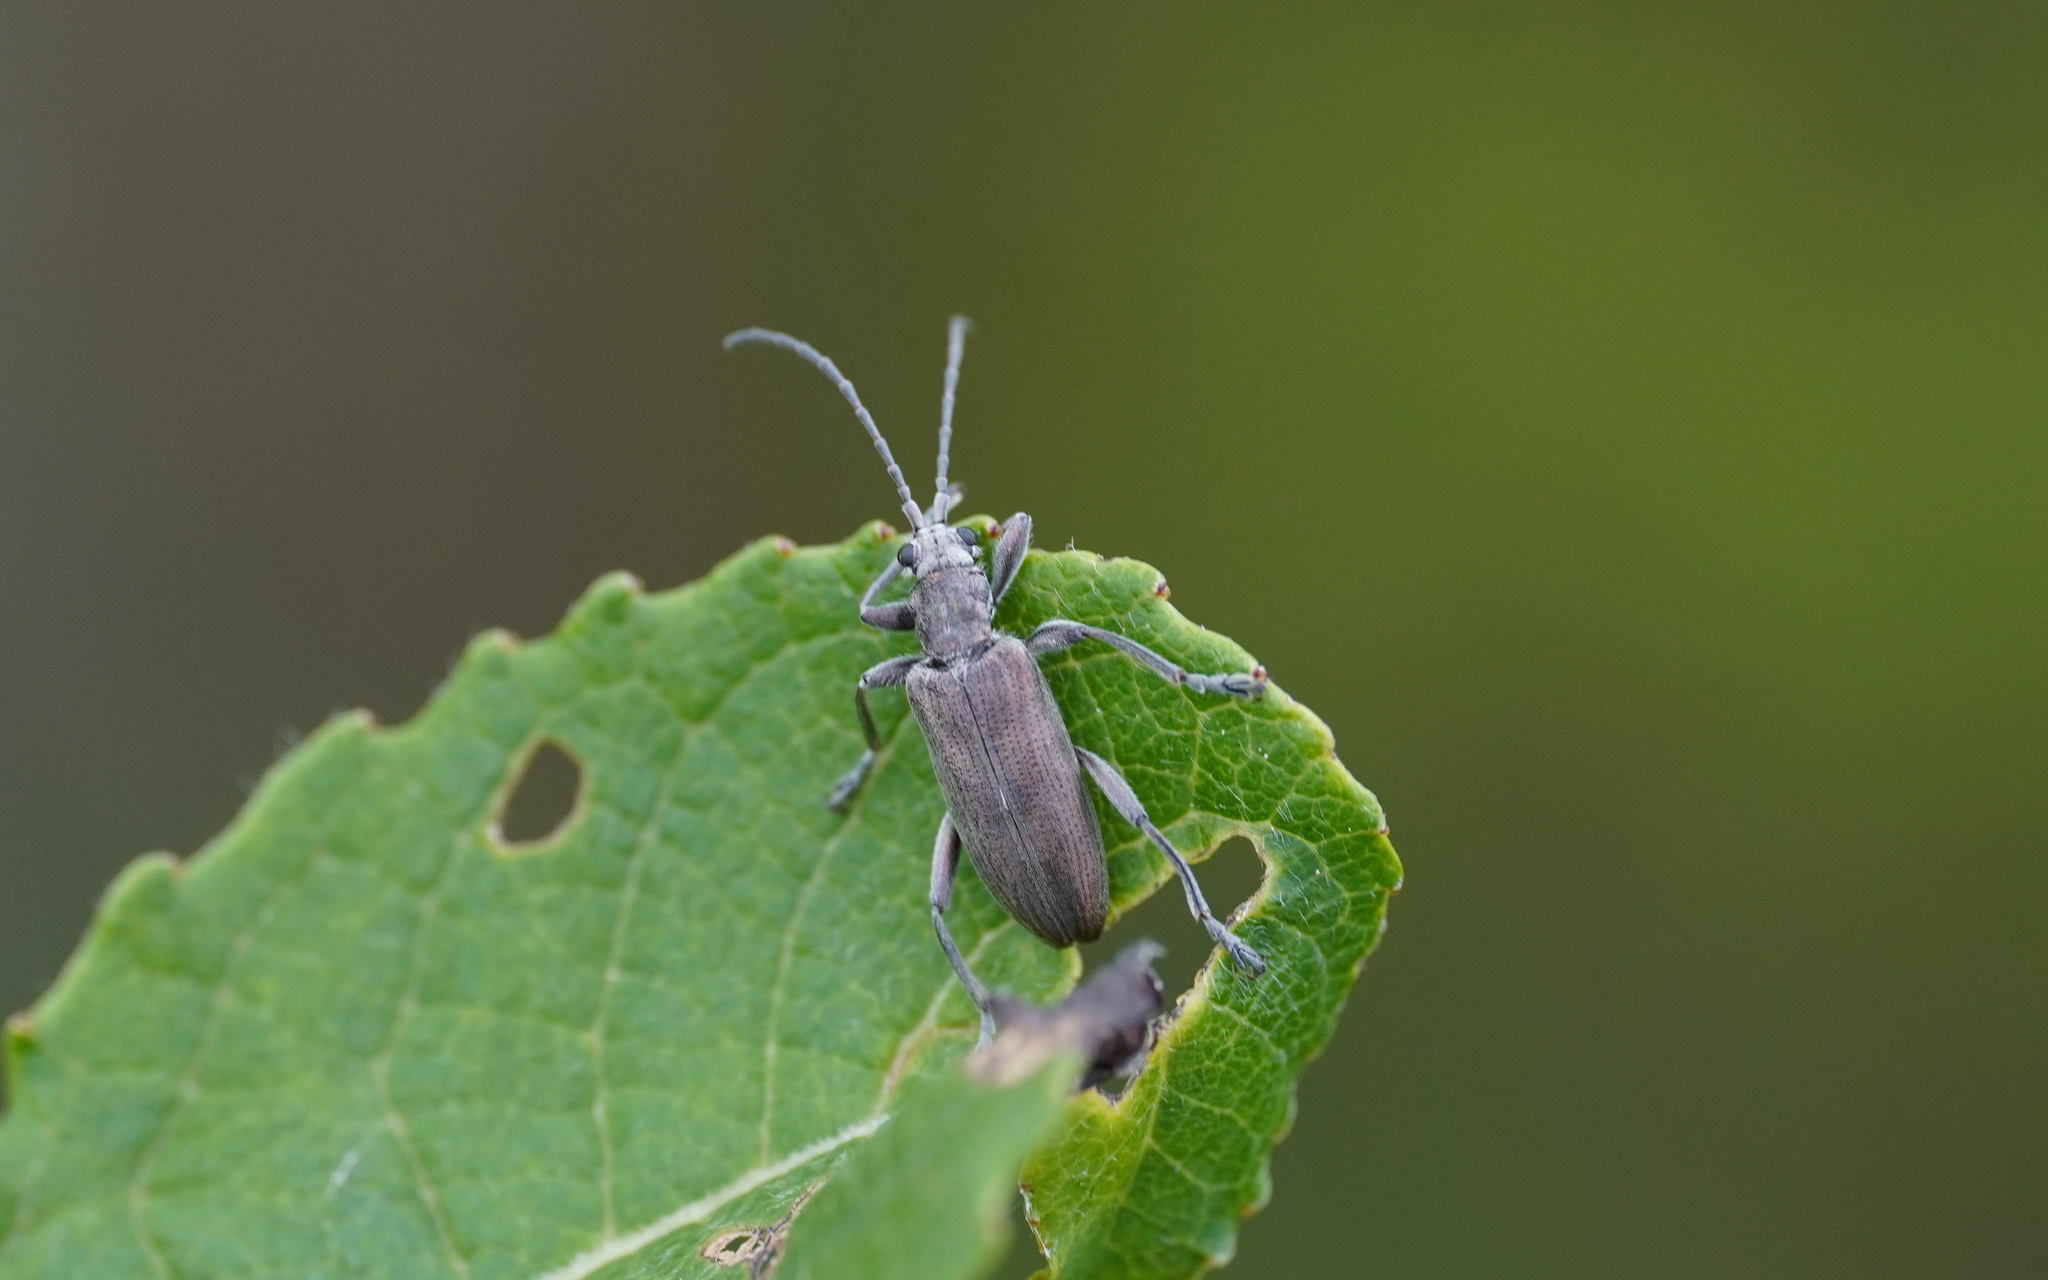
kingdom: Animalia
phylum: Arthropoda
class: Insecta
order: Coleoptera
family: Chrysomelidae
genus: Donacia
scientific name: Donacia cinerea
